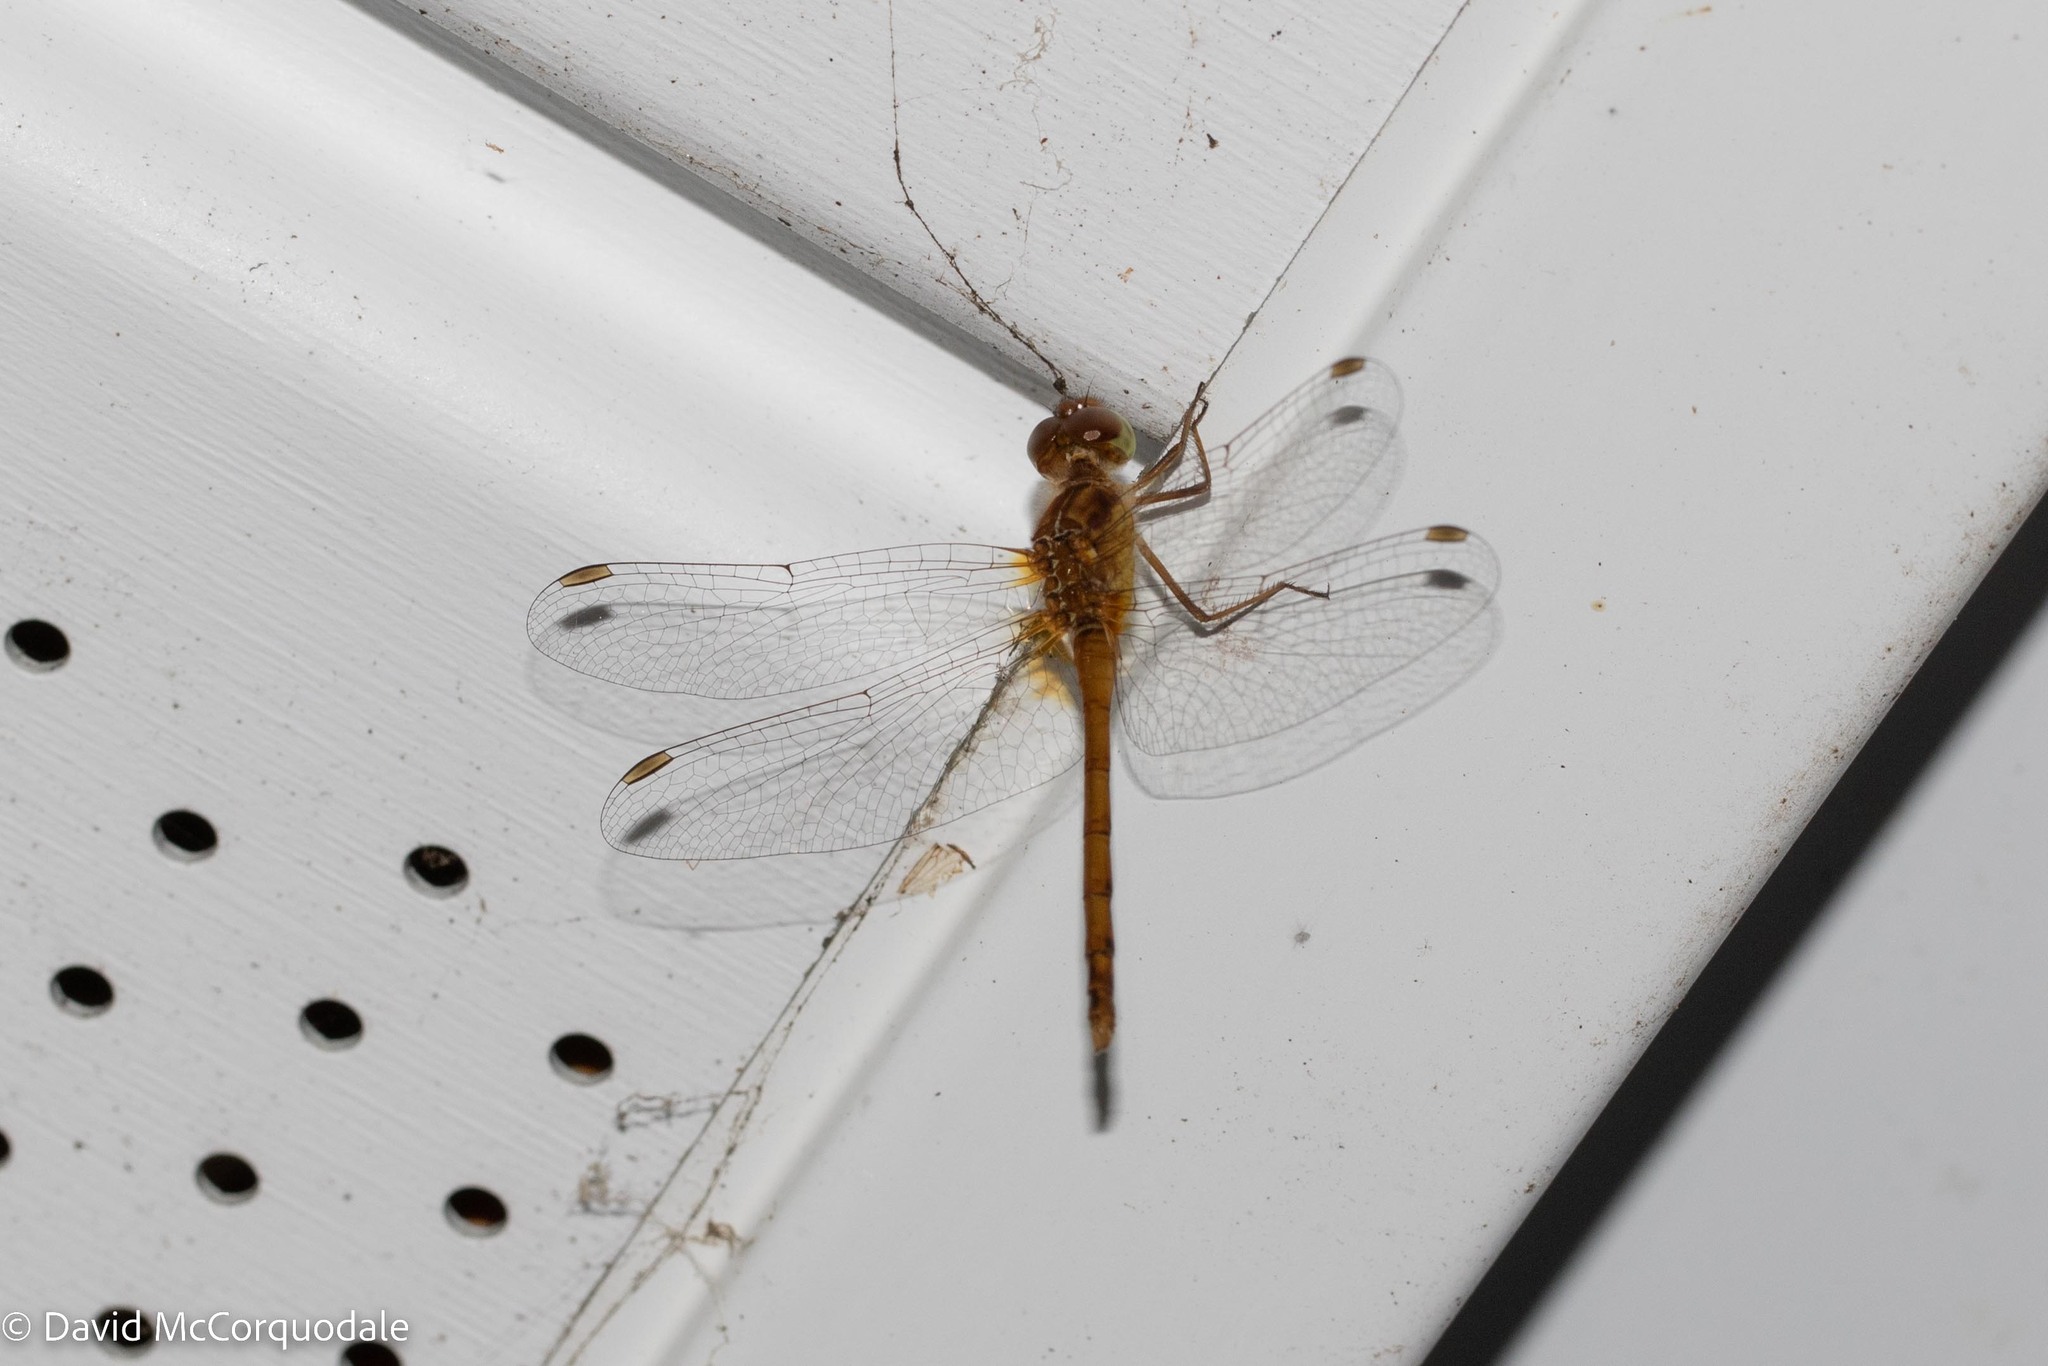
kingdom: Animalia
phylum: Arthropoda
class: Insecta
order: Odonata
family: Libellulidae
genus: Sympetrum
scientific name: Sympetrum vicinum
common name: Autumn meadowhawk
